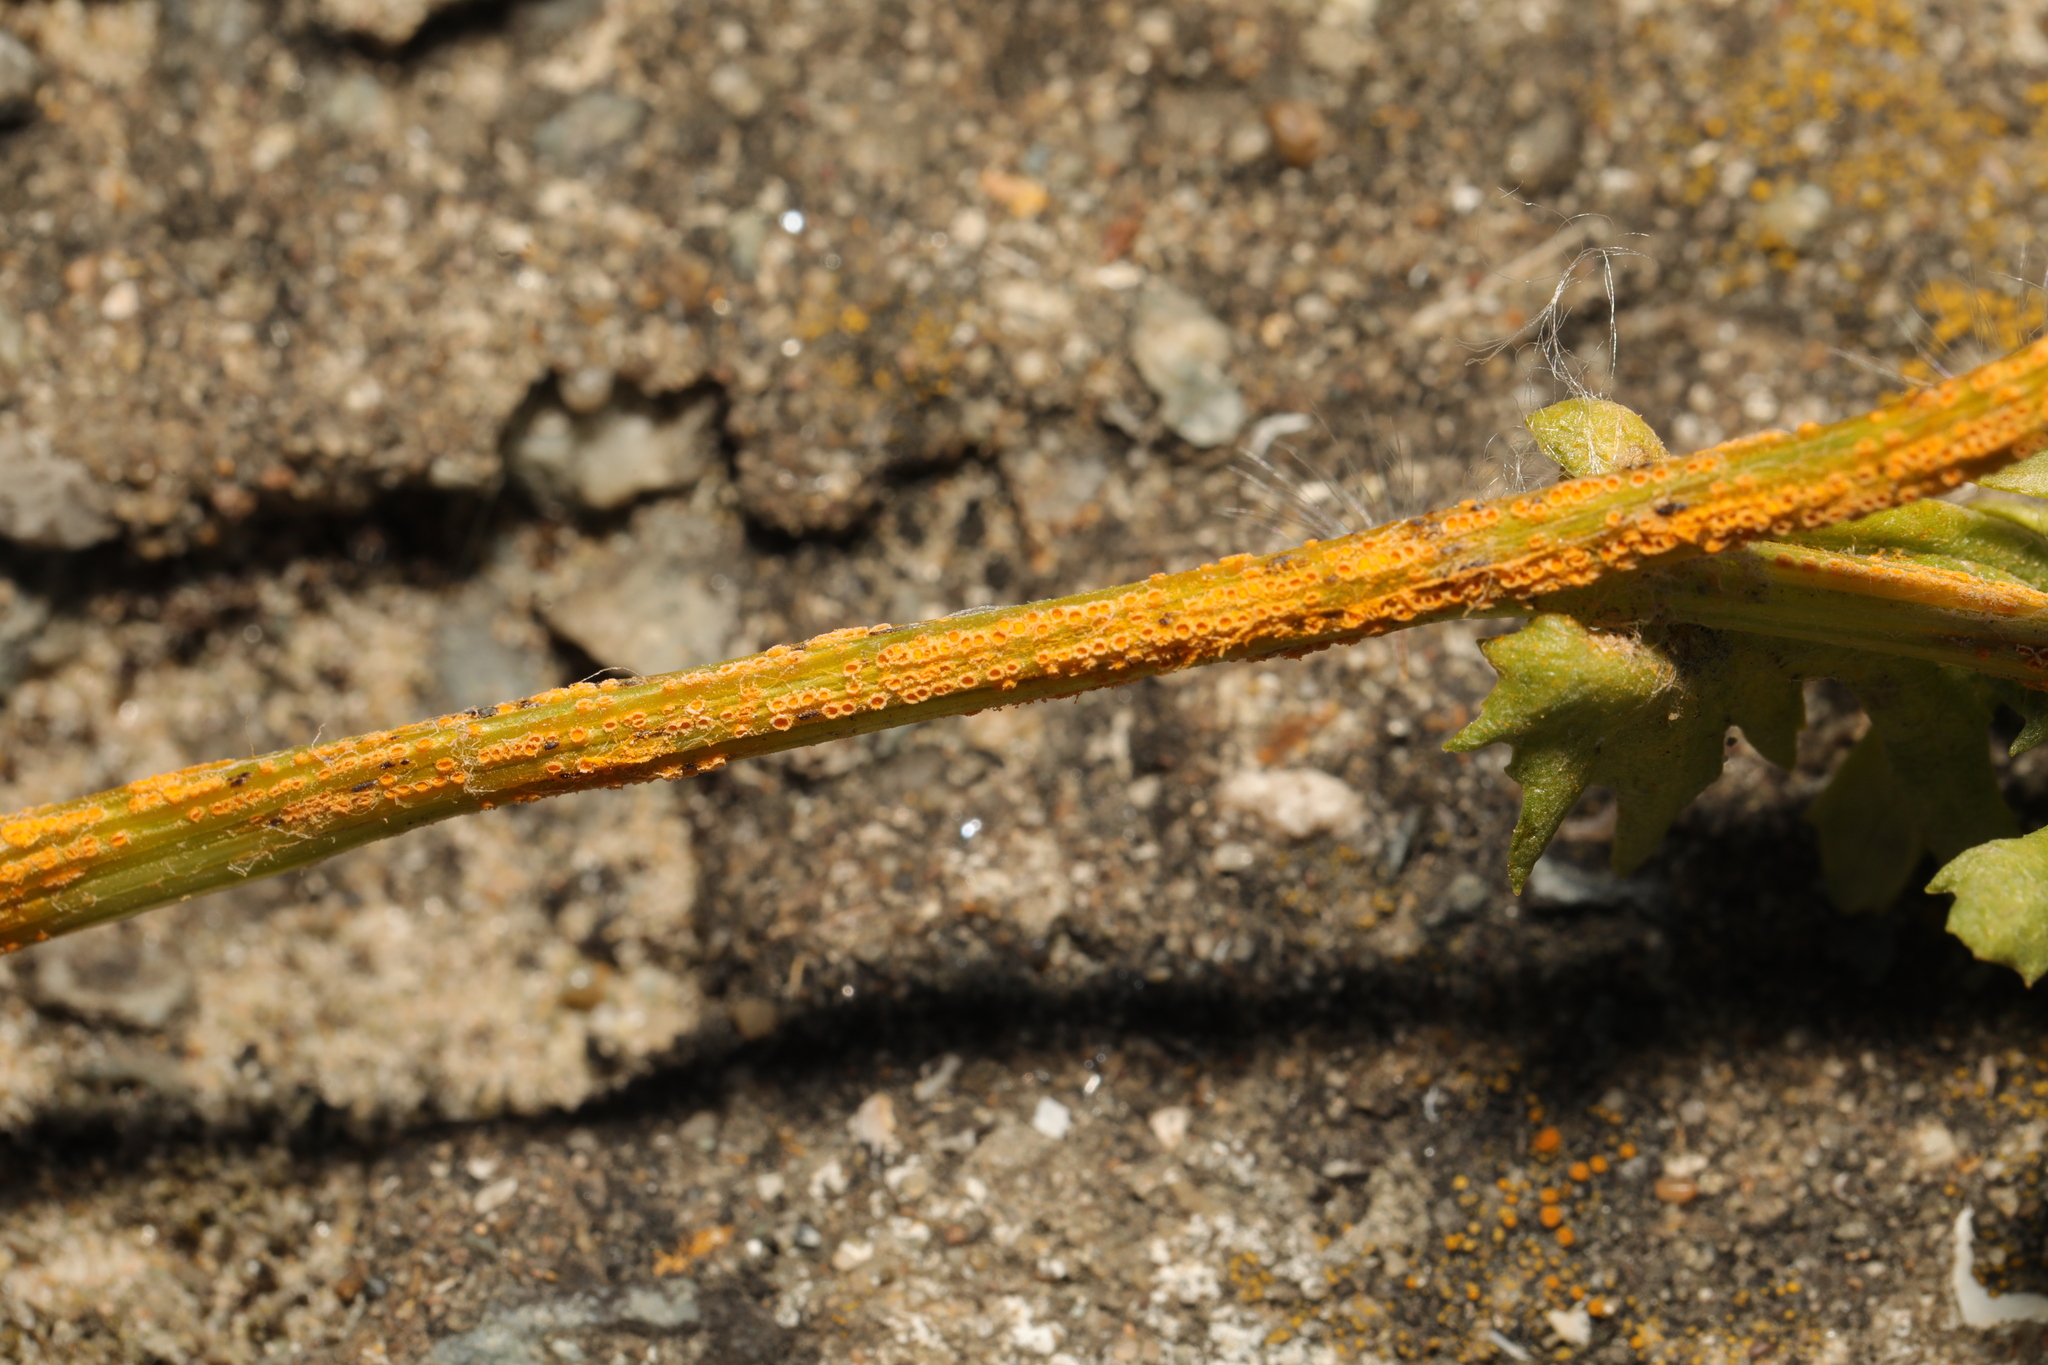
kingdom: Fungi
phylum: Basidiomycota
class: Pucciniomycetes
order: Pucciniales
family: Pucciniaceae
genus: Puccinia
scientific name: Puccinia lagenophorae
